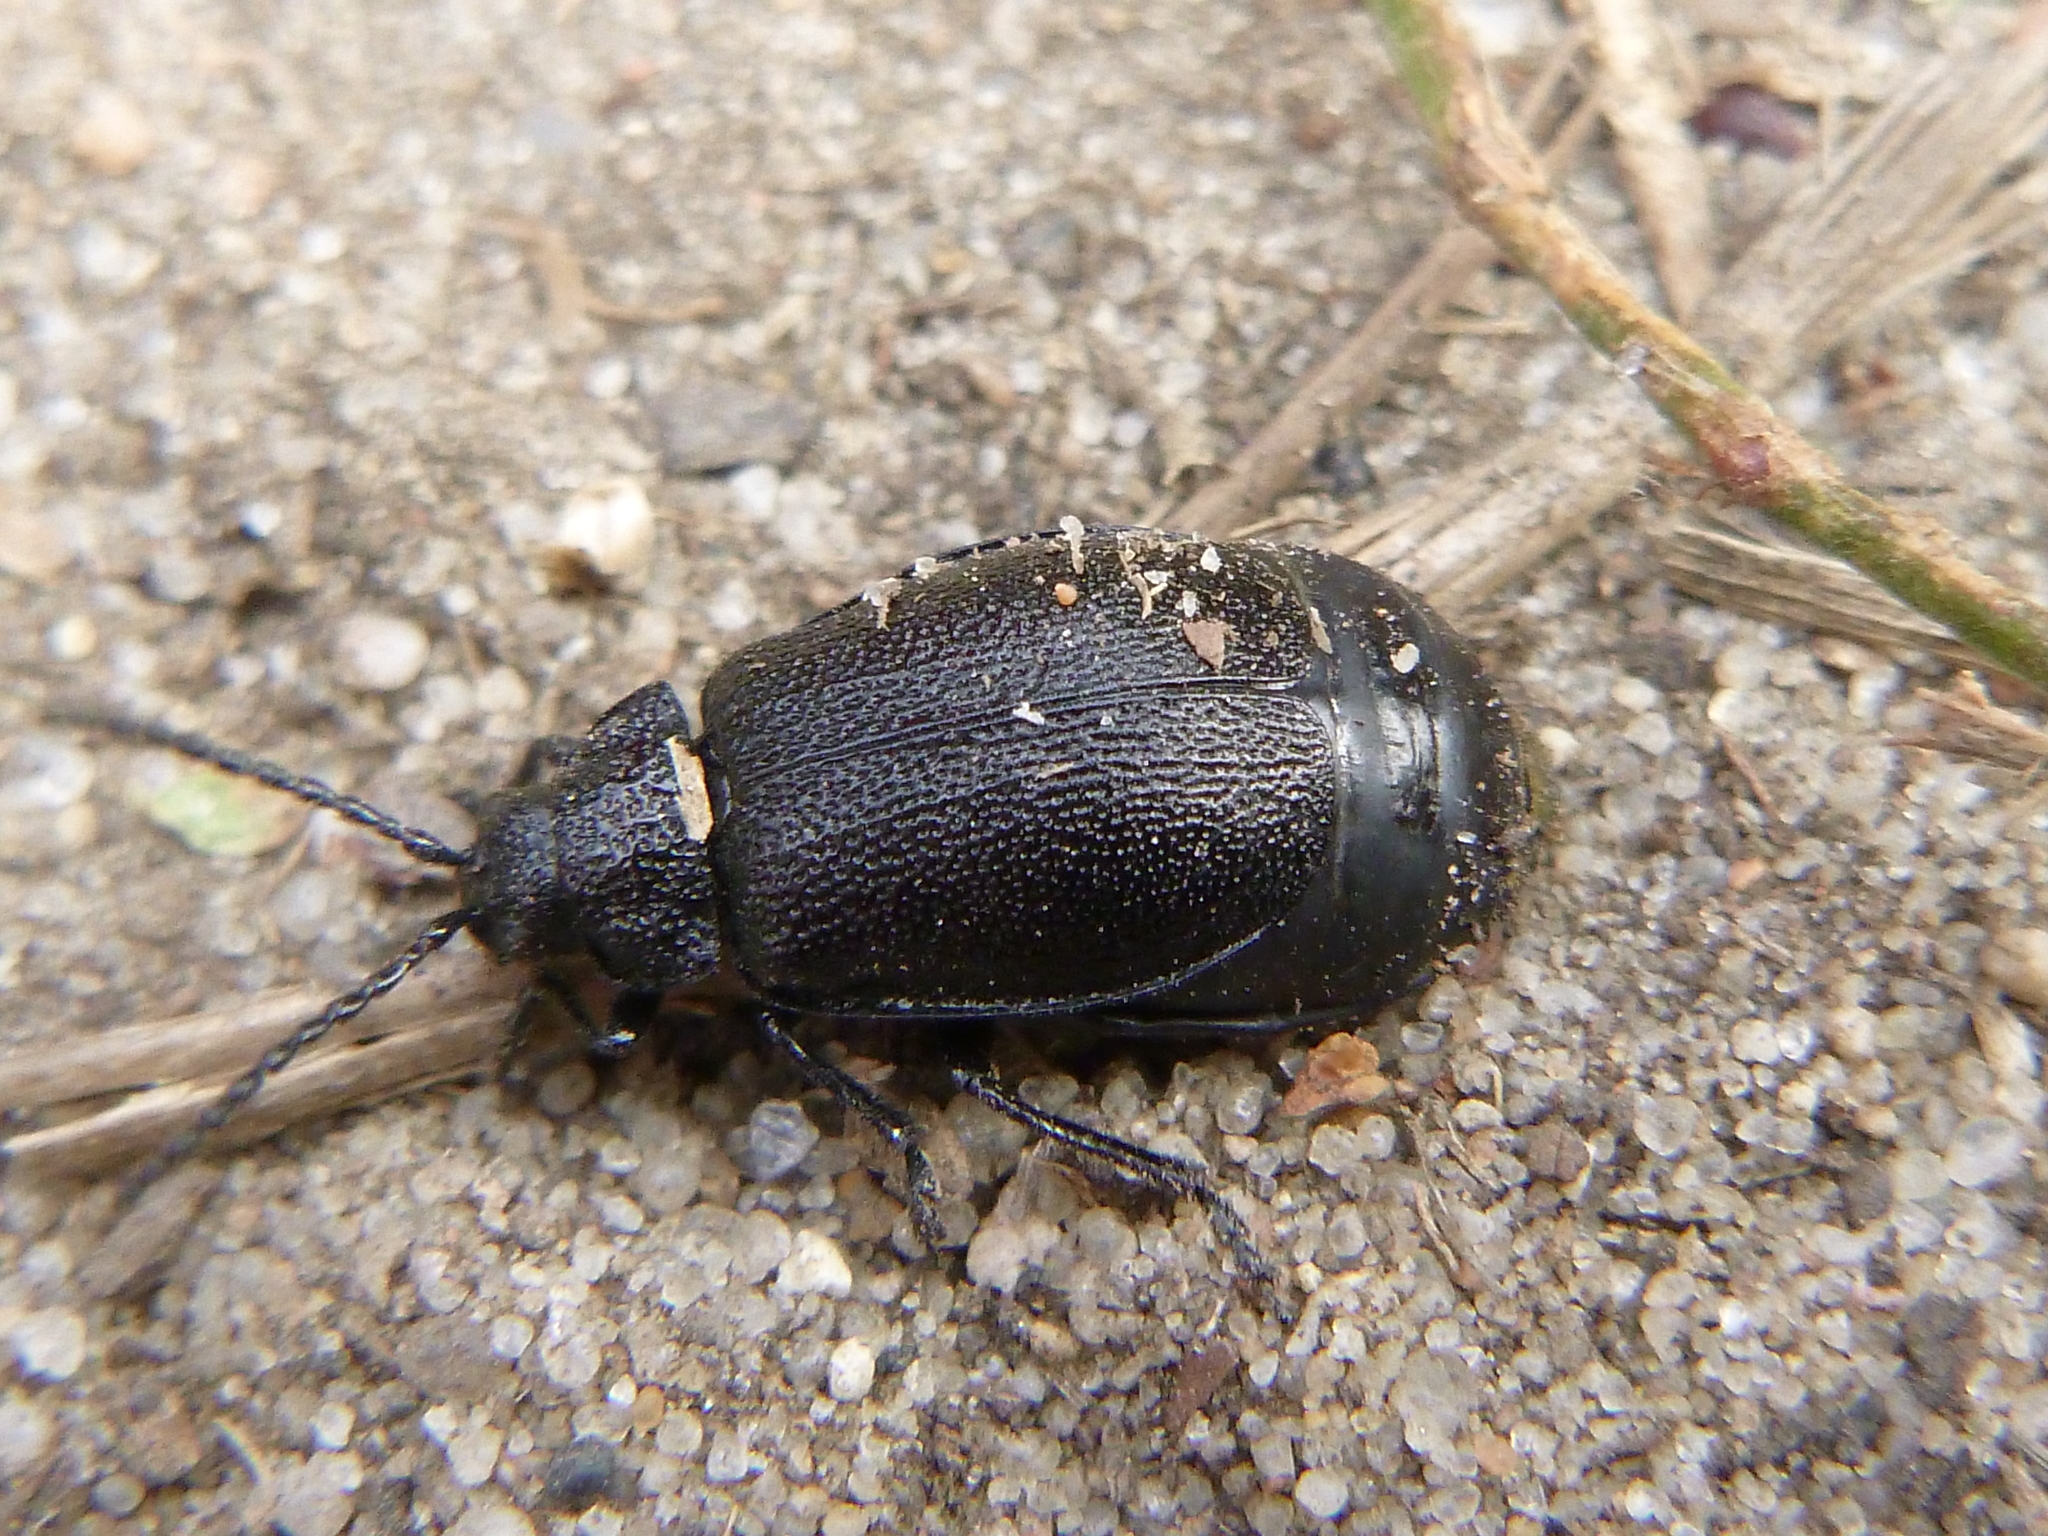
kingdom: Animalia
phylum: Arthropoda
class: Insecta
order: Coleoptera
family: Chrysomelidae
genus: Galeruca
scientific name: Galeruca tanaceti
